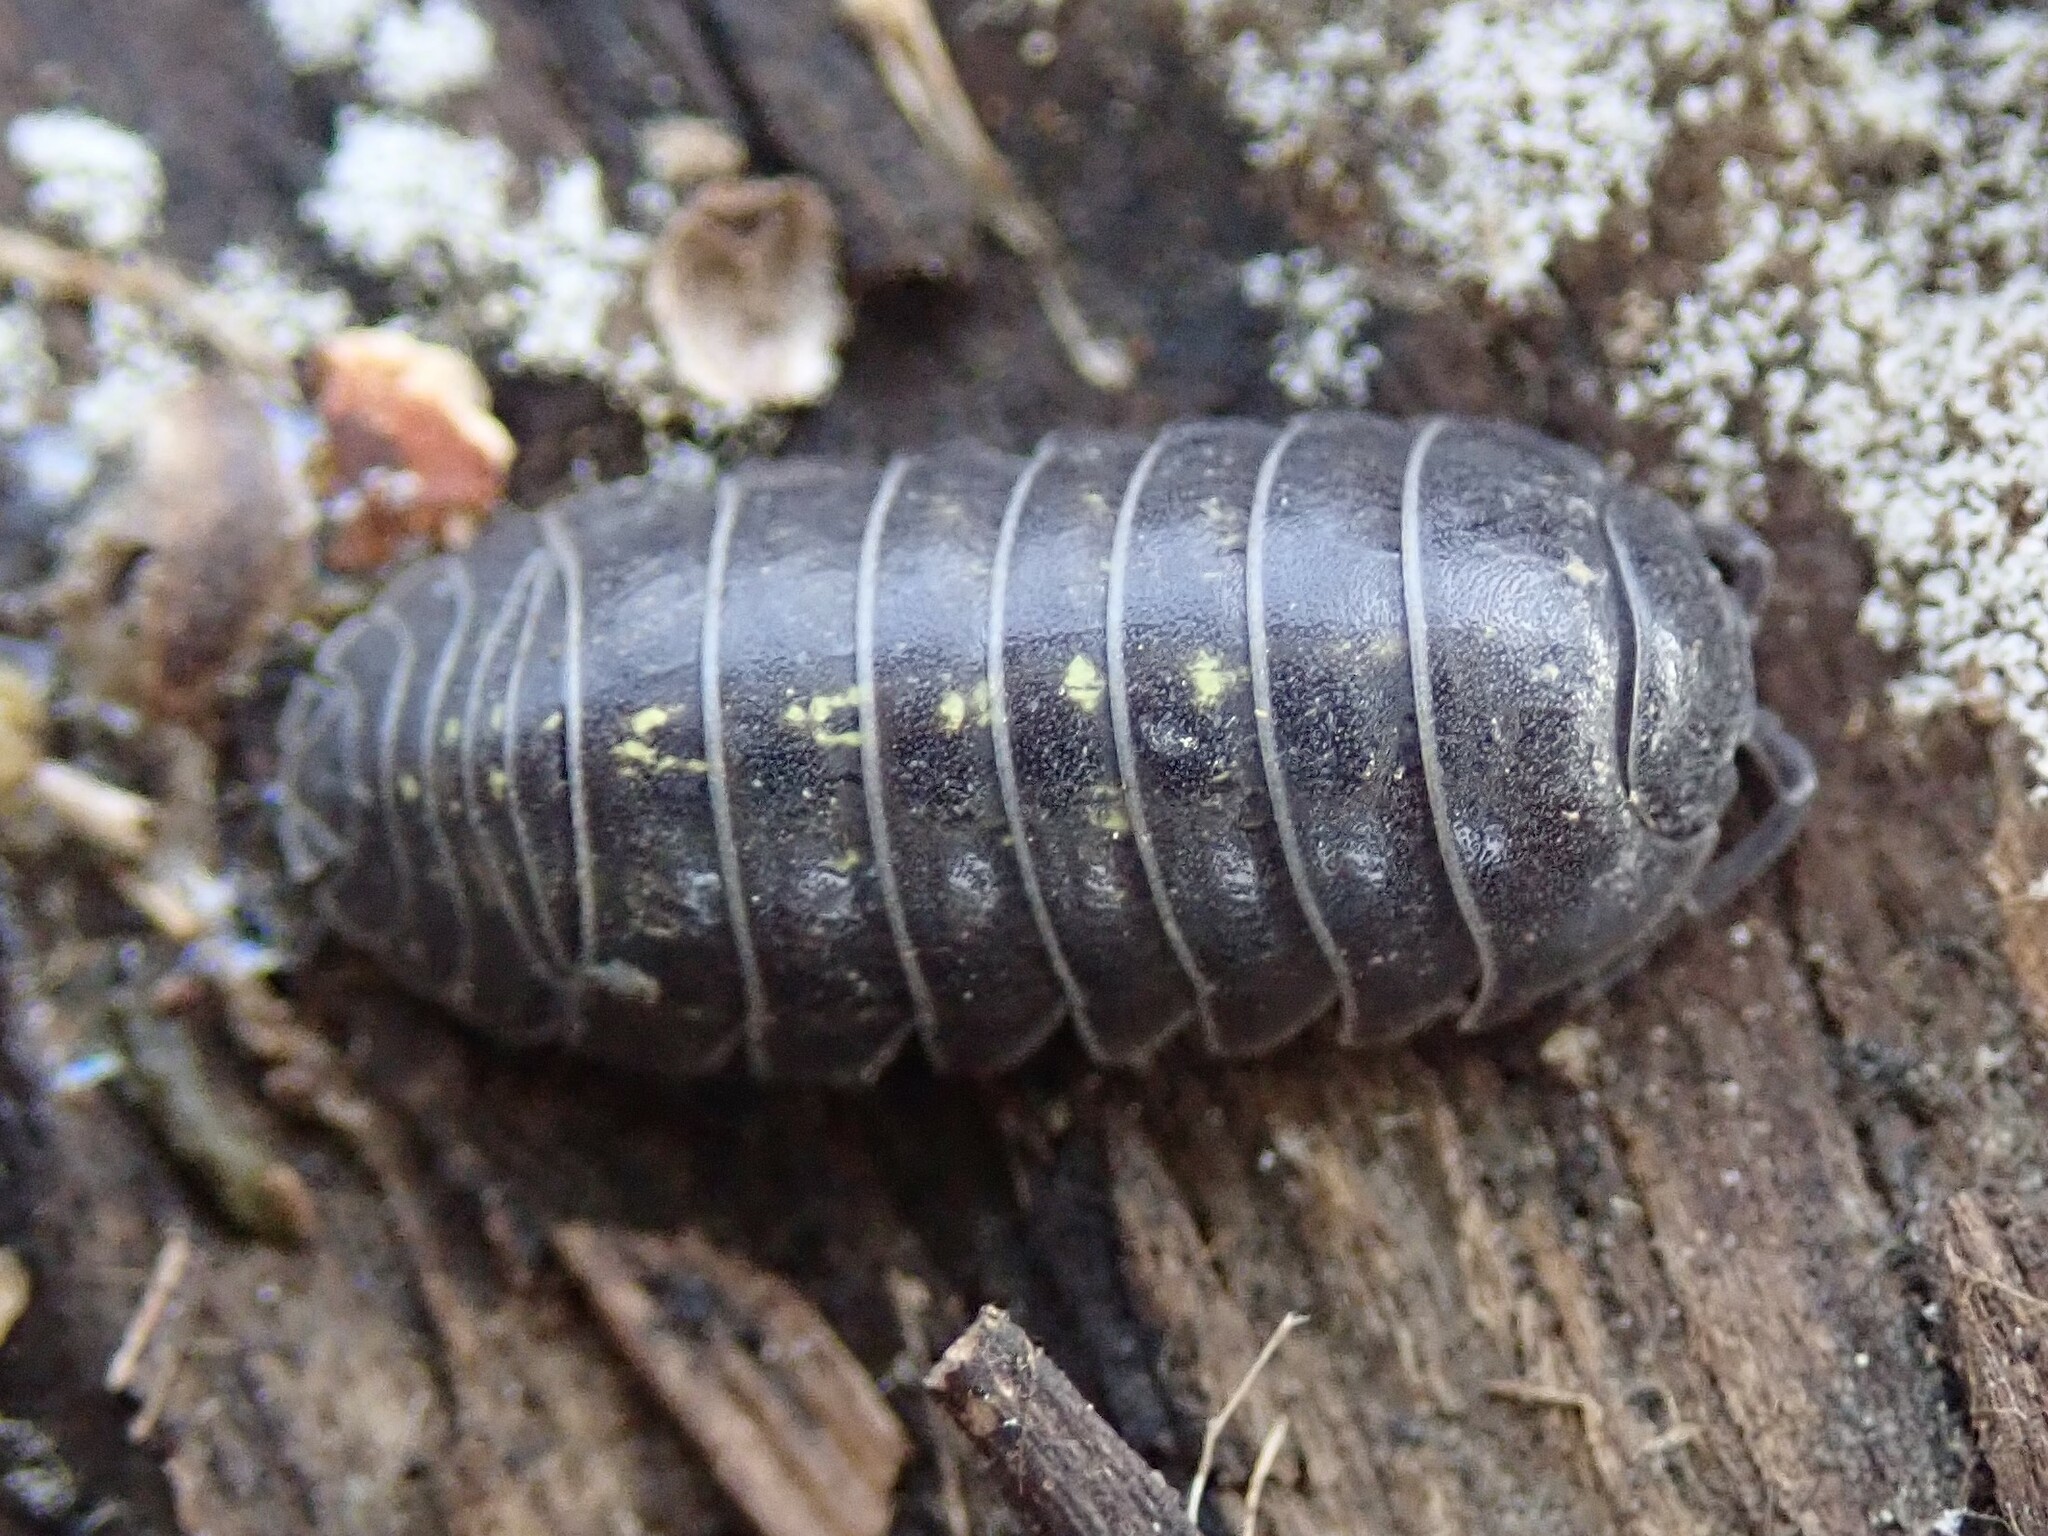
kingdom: Animalia
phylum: Arthropoda
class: Malacostraca
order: Isopoda
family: Armadillidiidae
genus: Armadillidium
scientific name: Armadillidium vulgare
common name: Common pill woodlouse
